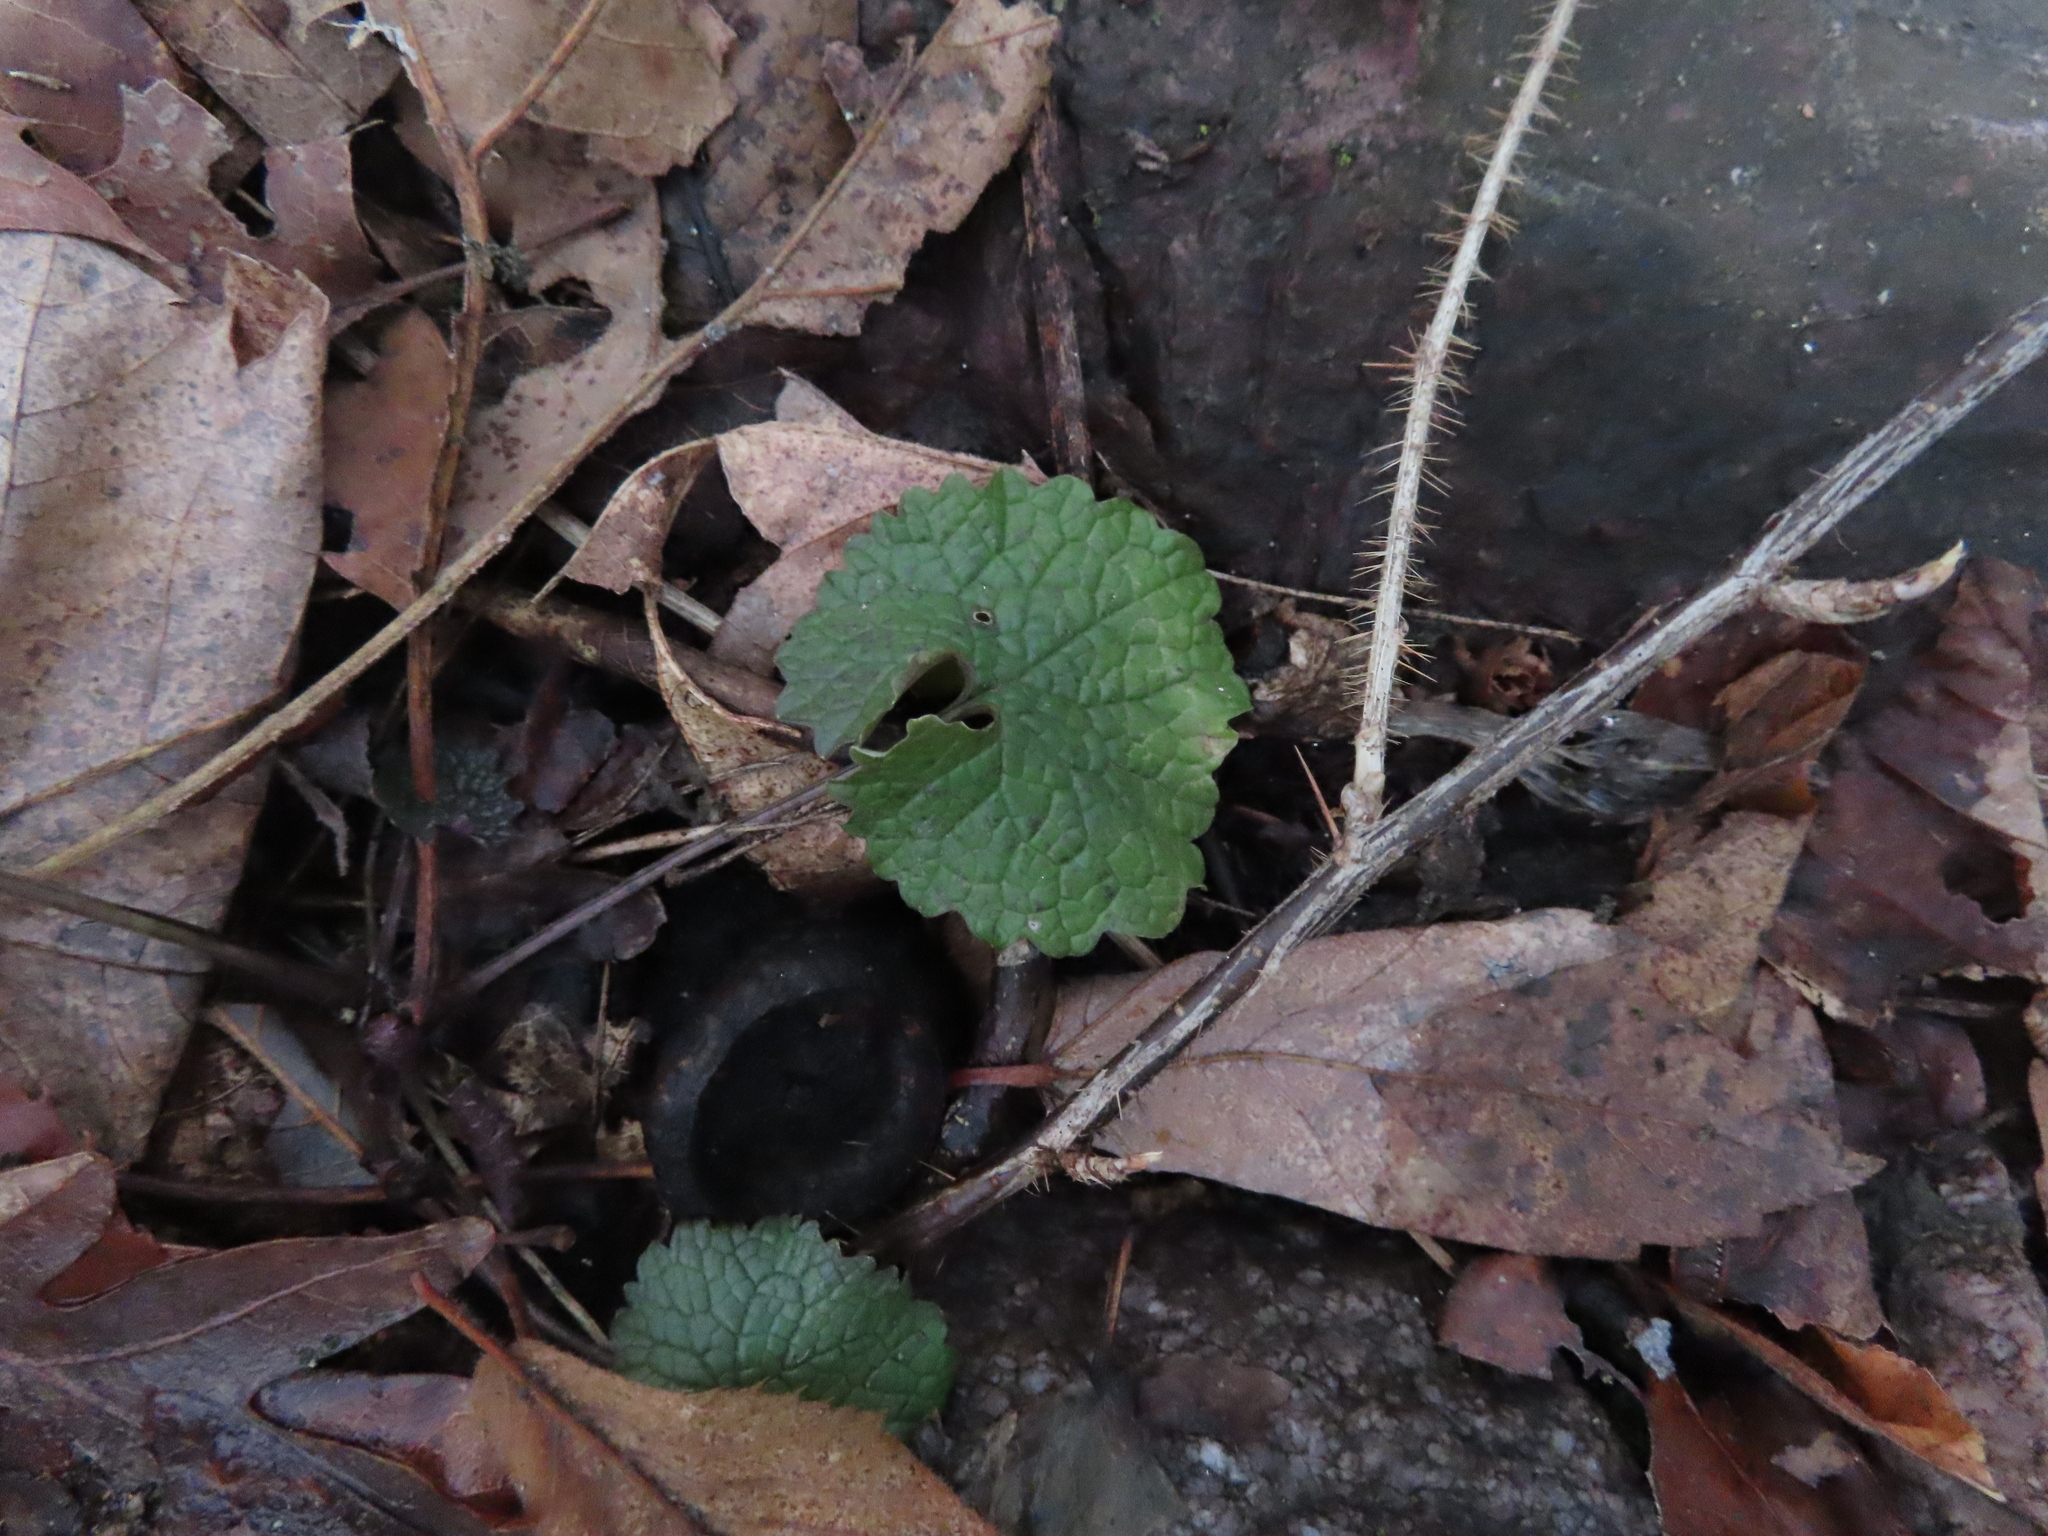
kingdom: Plantae
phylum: Tracheophyta
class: Magnoliopsida
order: Brassicales
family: Brassicaceae
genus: Alliaria
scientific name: Alliaria petiolata
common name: Garlic mustard
